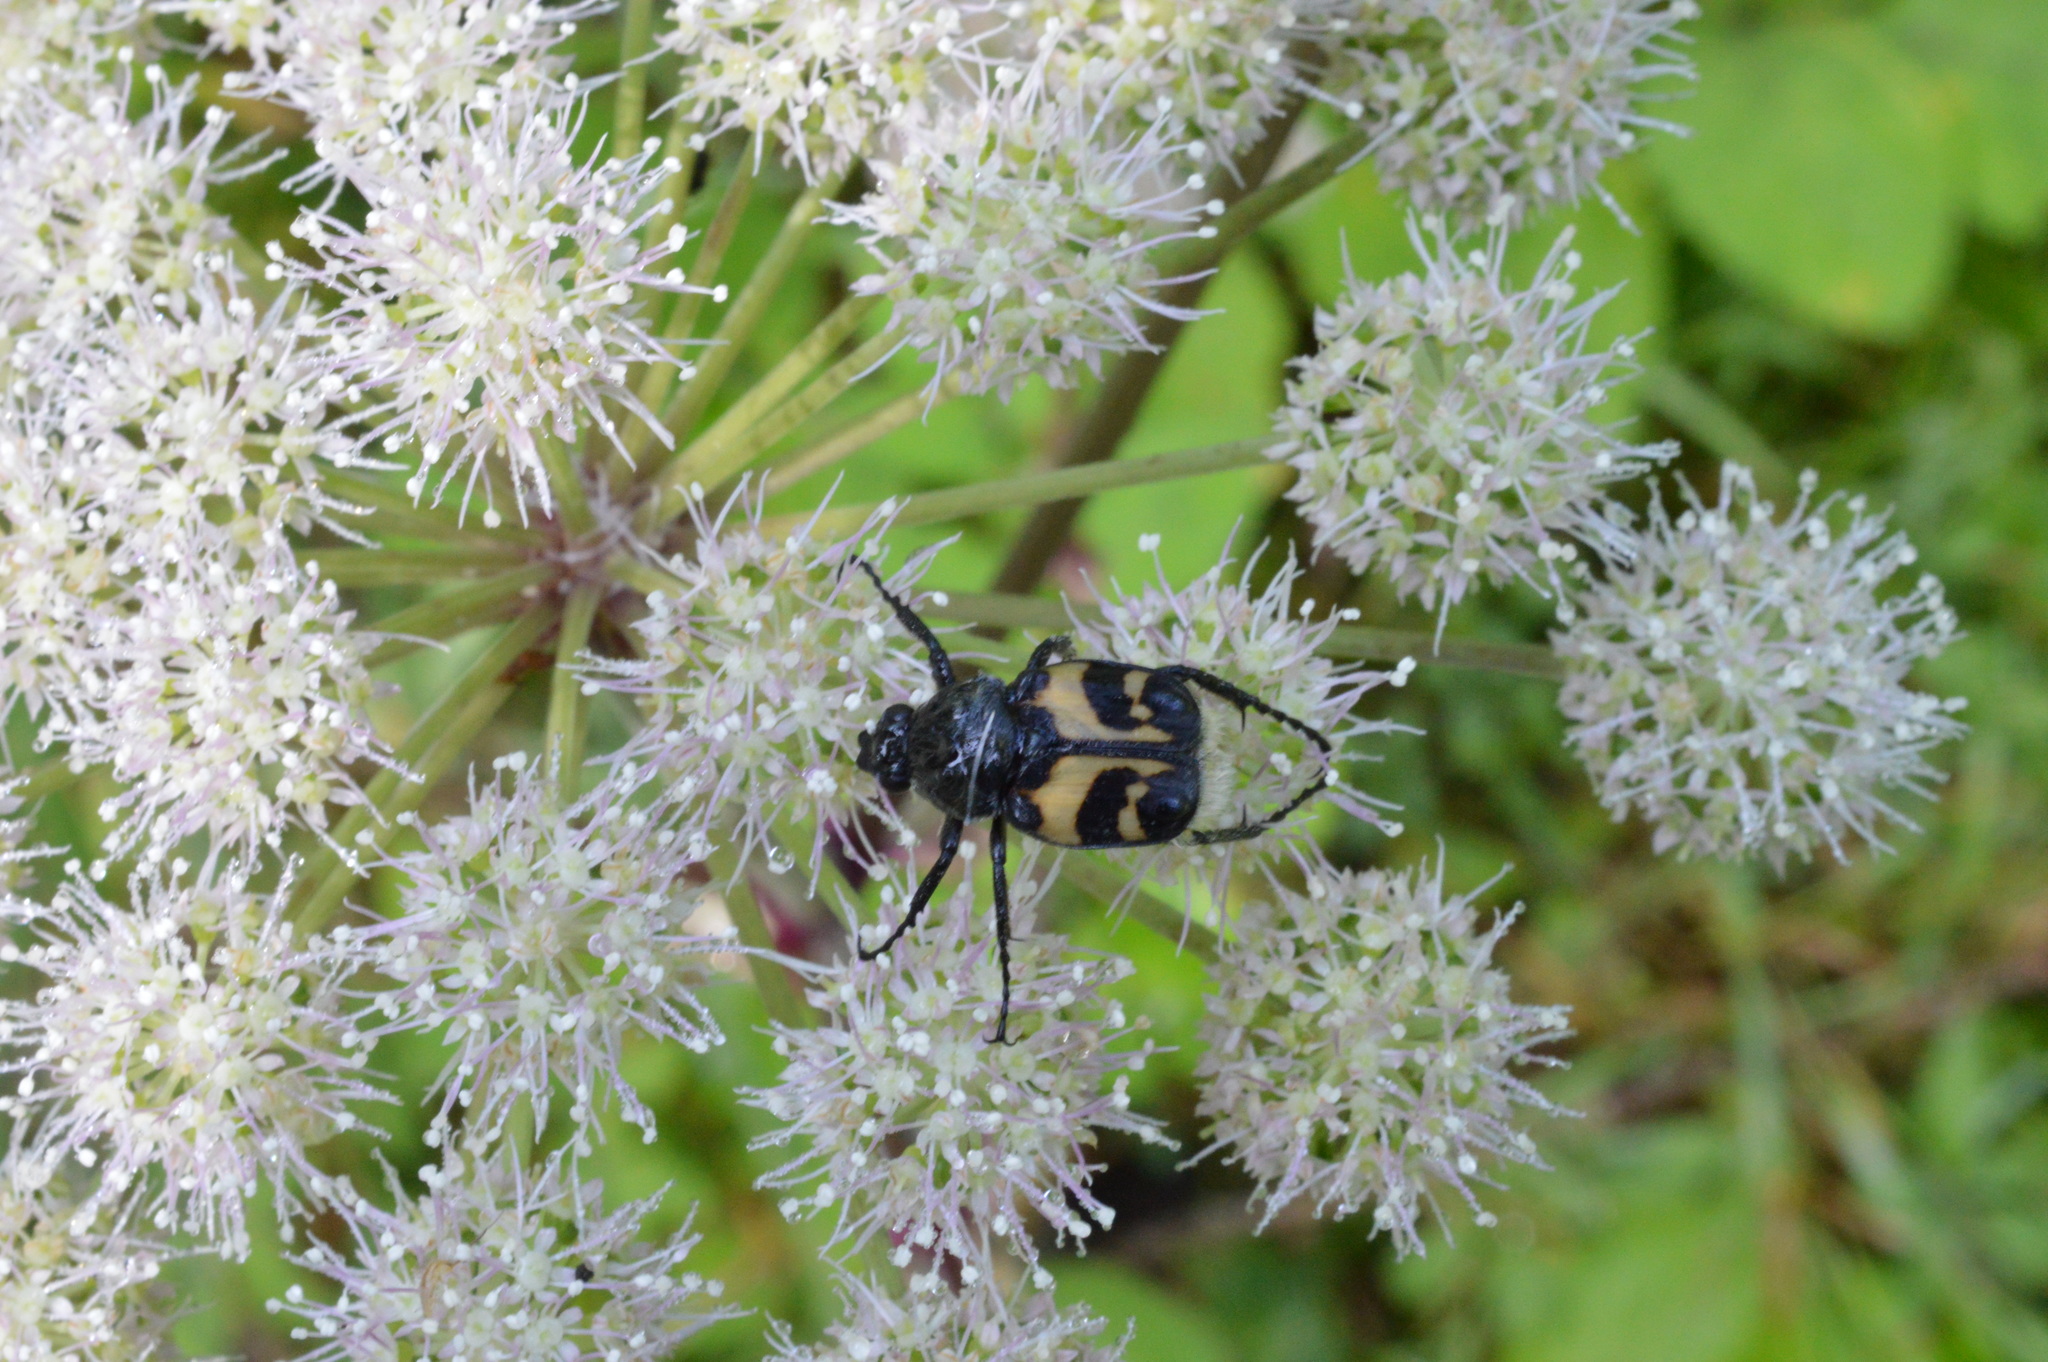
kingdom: Animalia
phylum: Arthropoda
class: Insecta
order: Coleoptera
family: Scarabaeidae
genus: Trichius
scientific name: Trichius fasciatus
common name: Bee beetle
